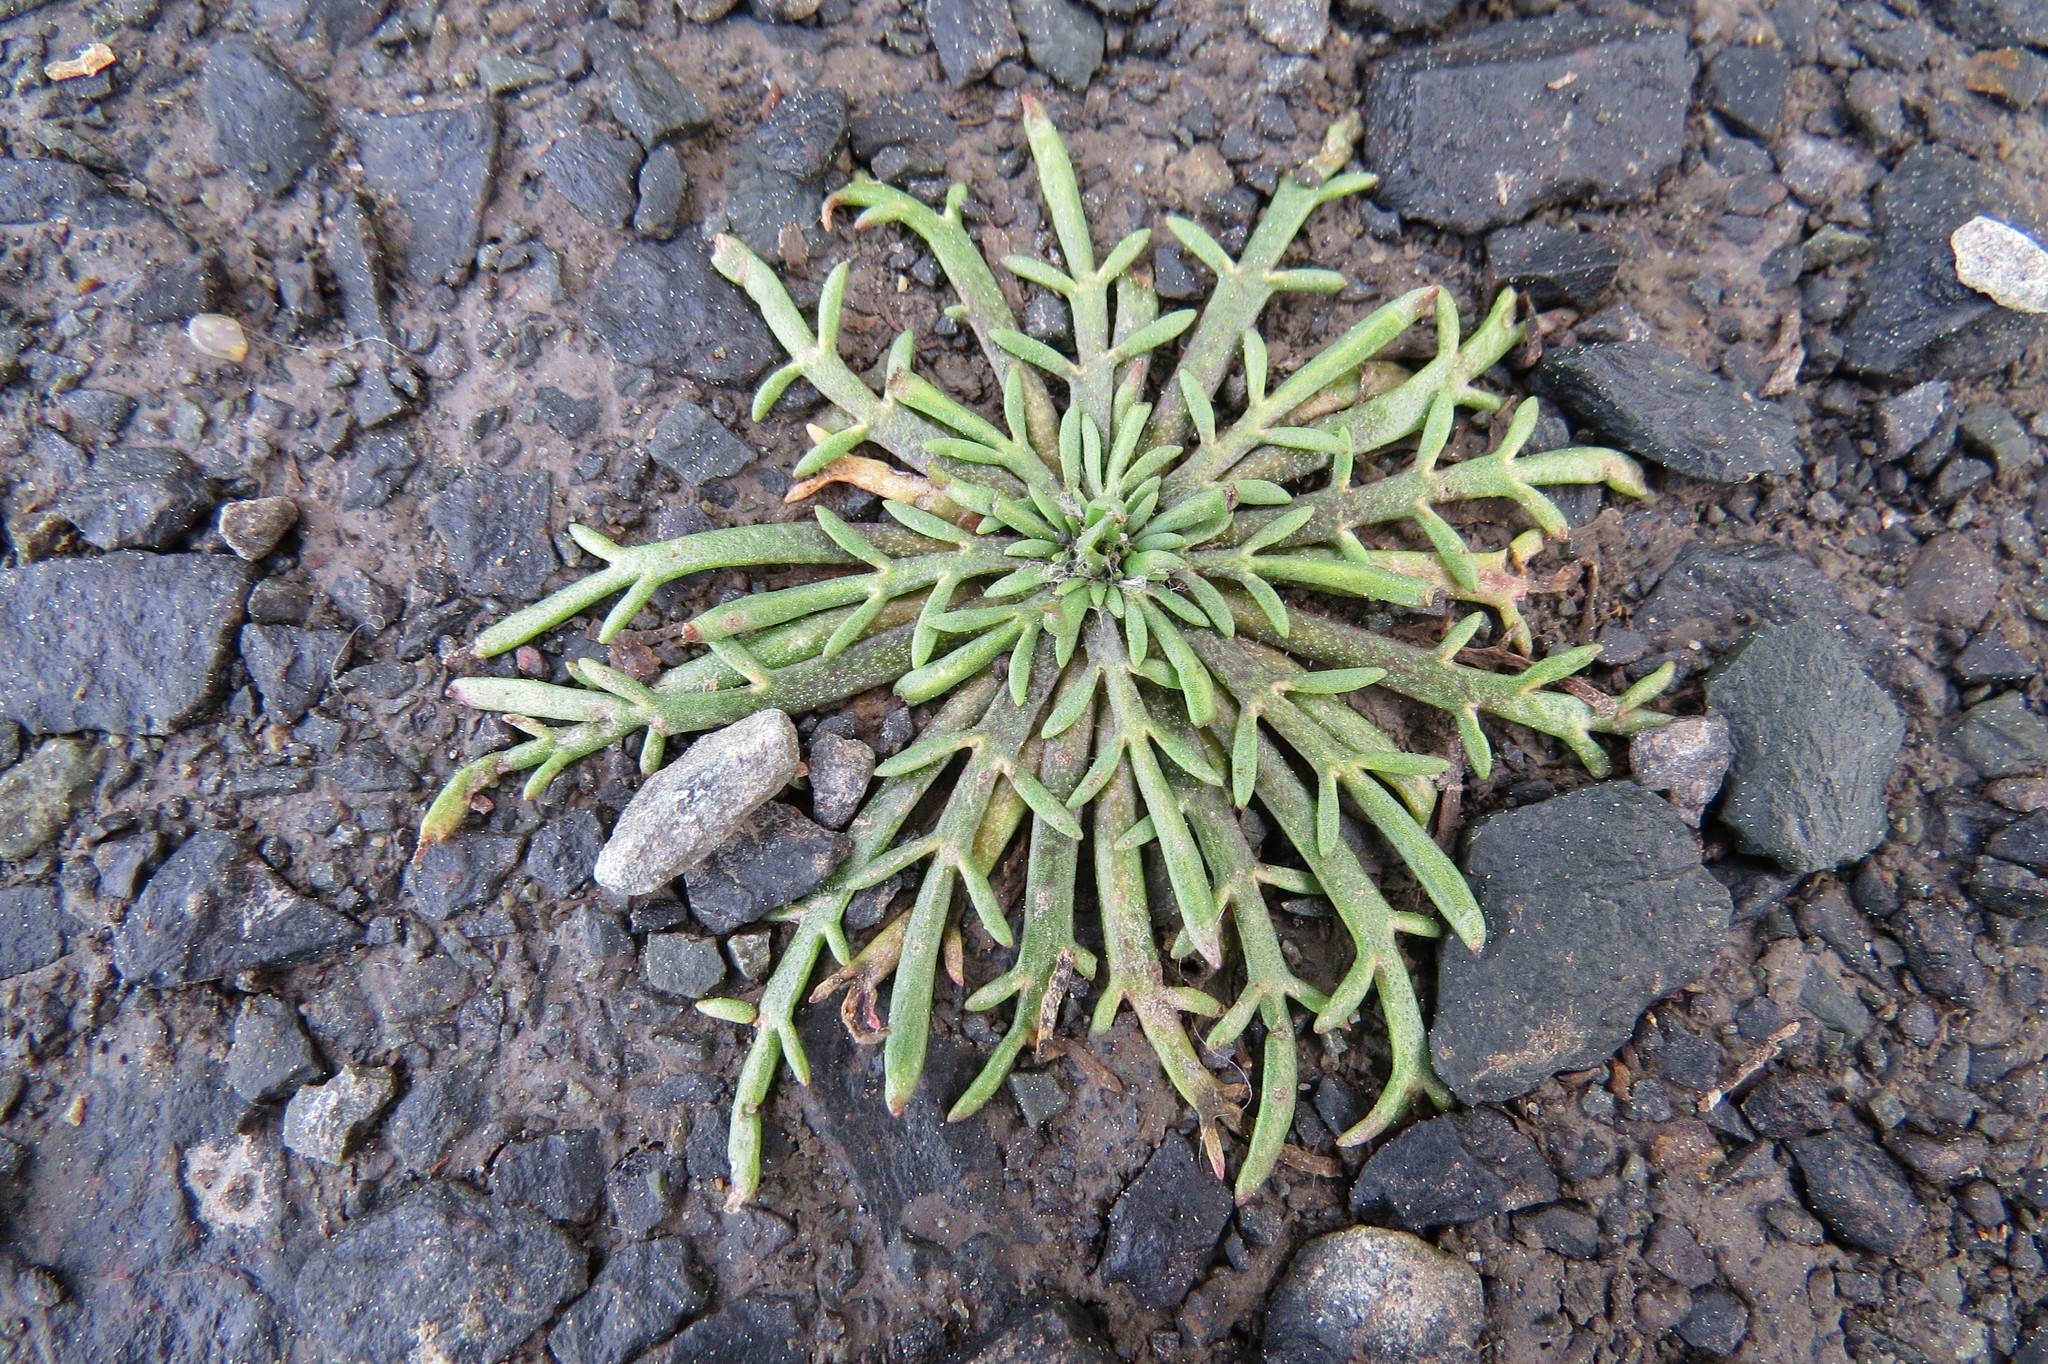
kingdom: Plantae
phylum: Tracheophyta
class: Magnoliopsida
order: Lamiales
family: Plantaginaceae
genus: Plantago
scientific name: Plantago coronopus
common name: Buck's-horn plantain
